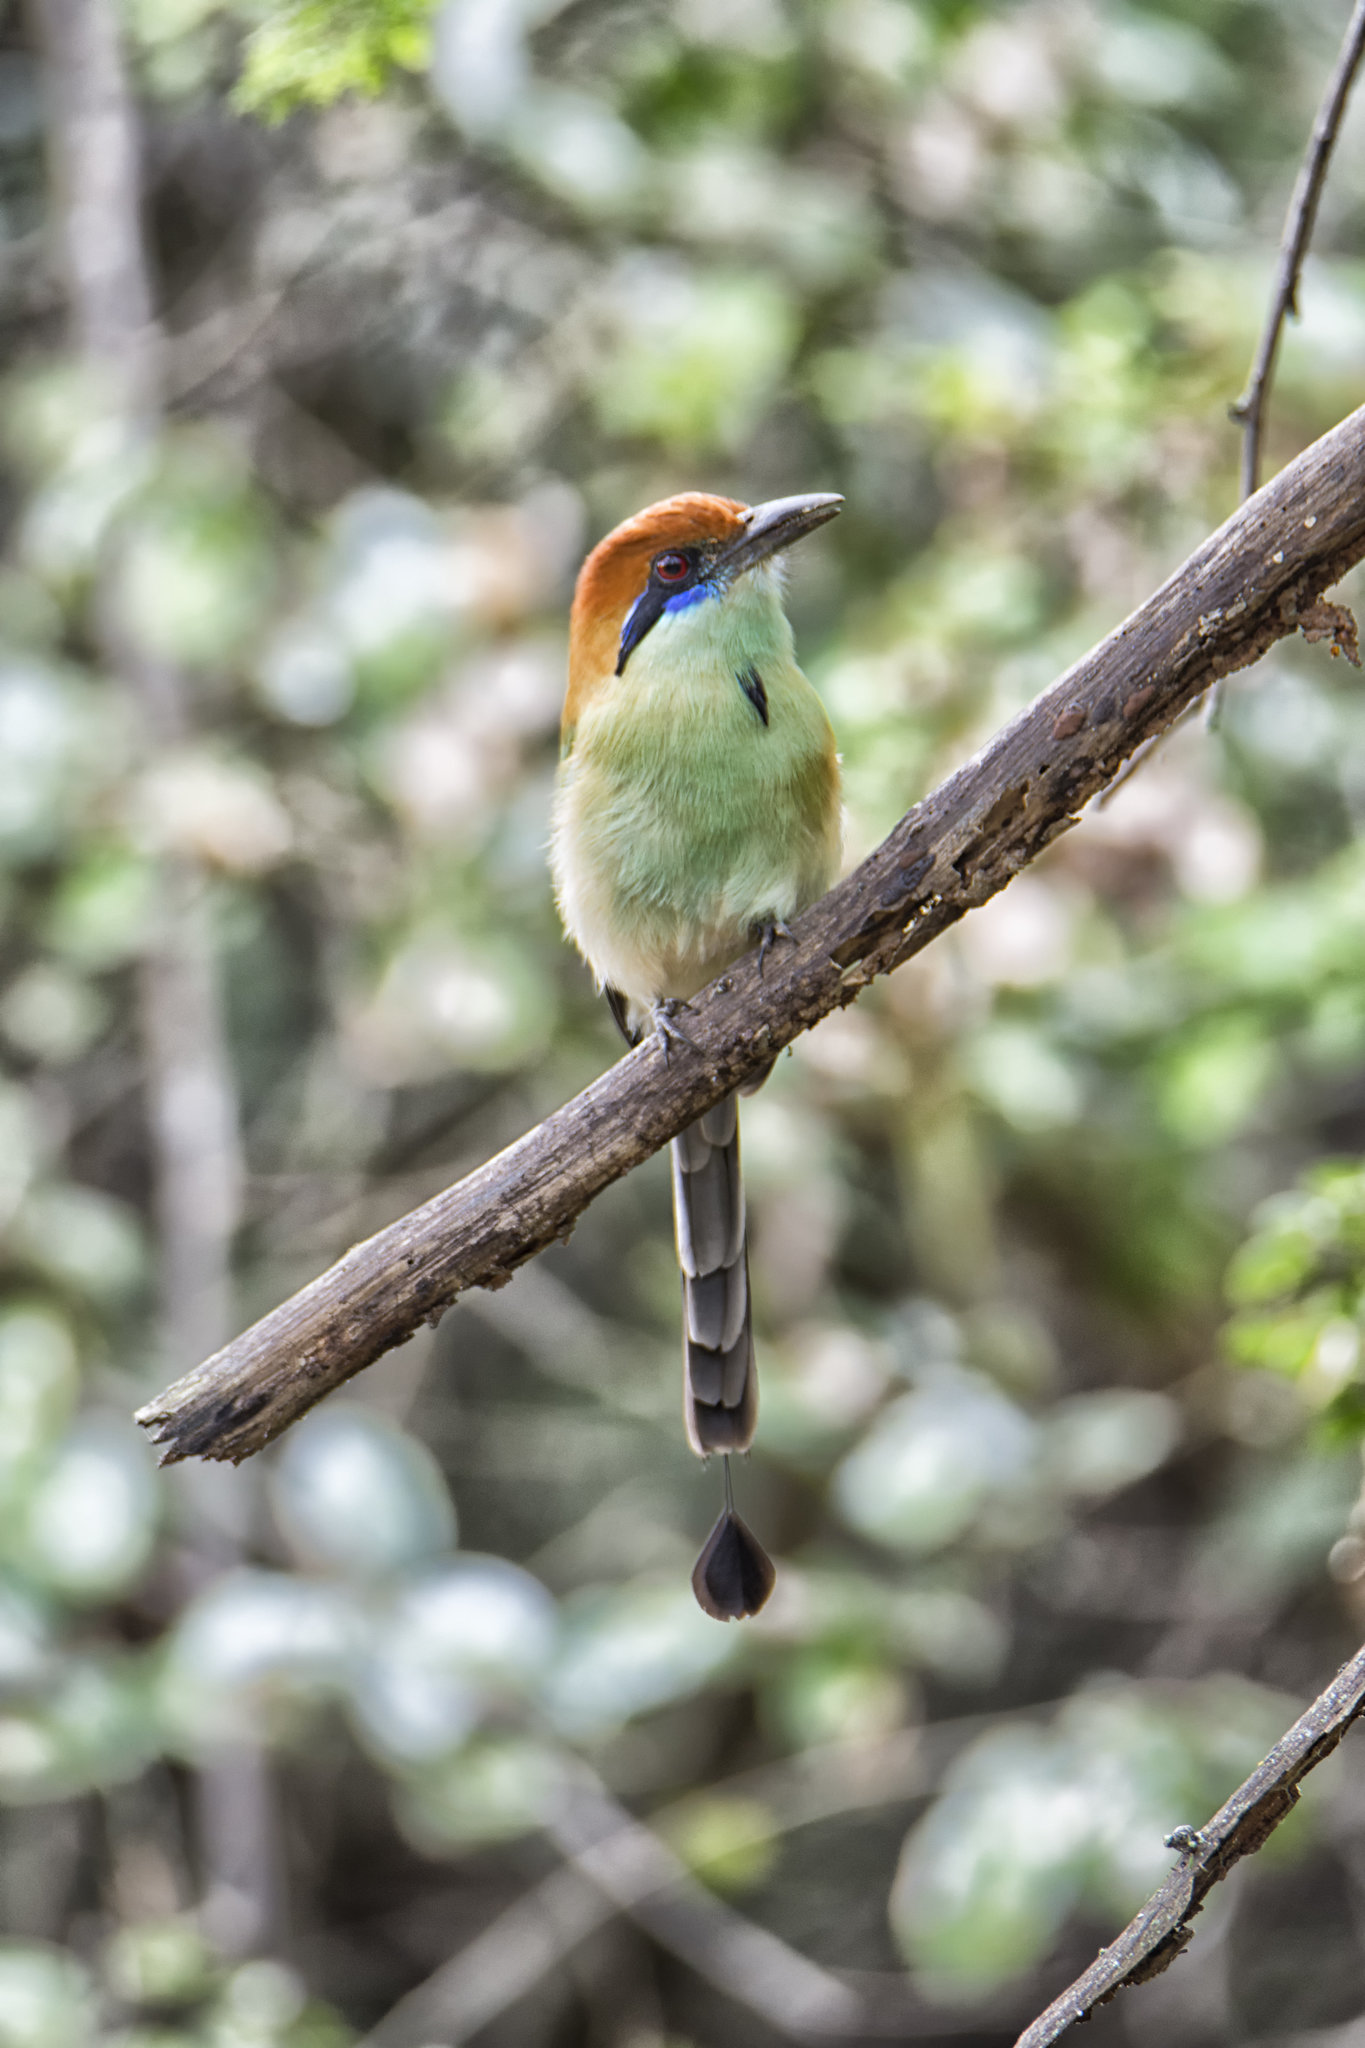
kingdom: Animalia
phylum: Chordata
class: Aves
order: Coraciiformes
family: Momotidae
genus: Momotus
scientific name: Momotus mexicanus
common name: Russet-crowned motmot
